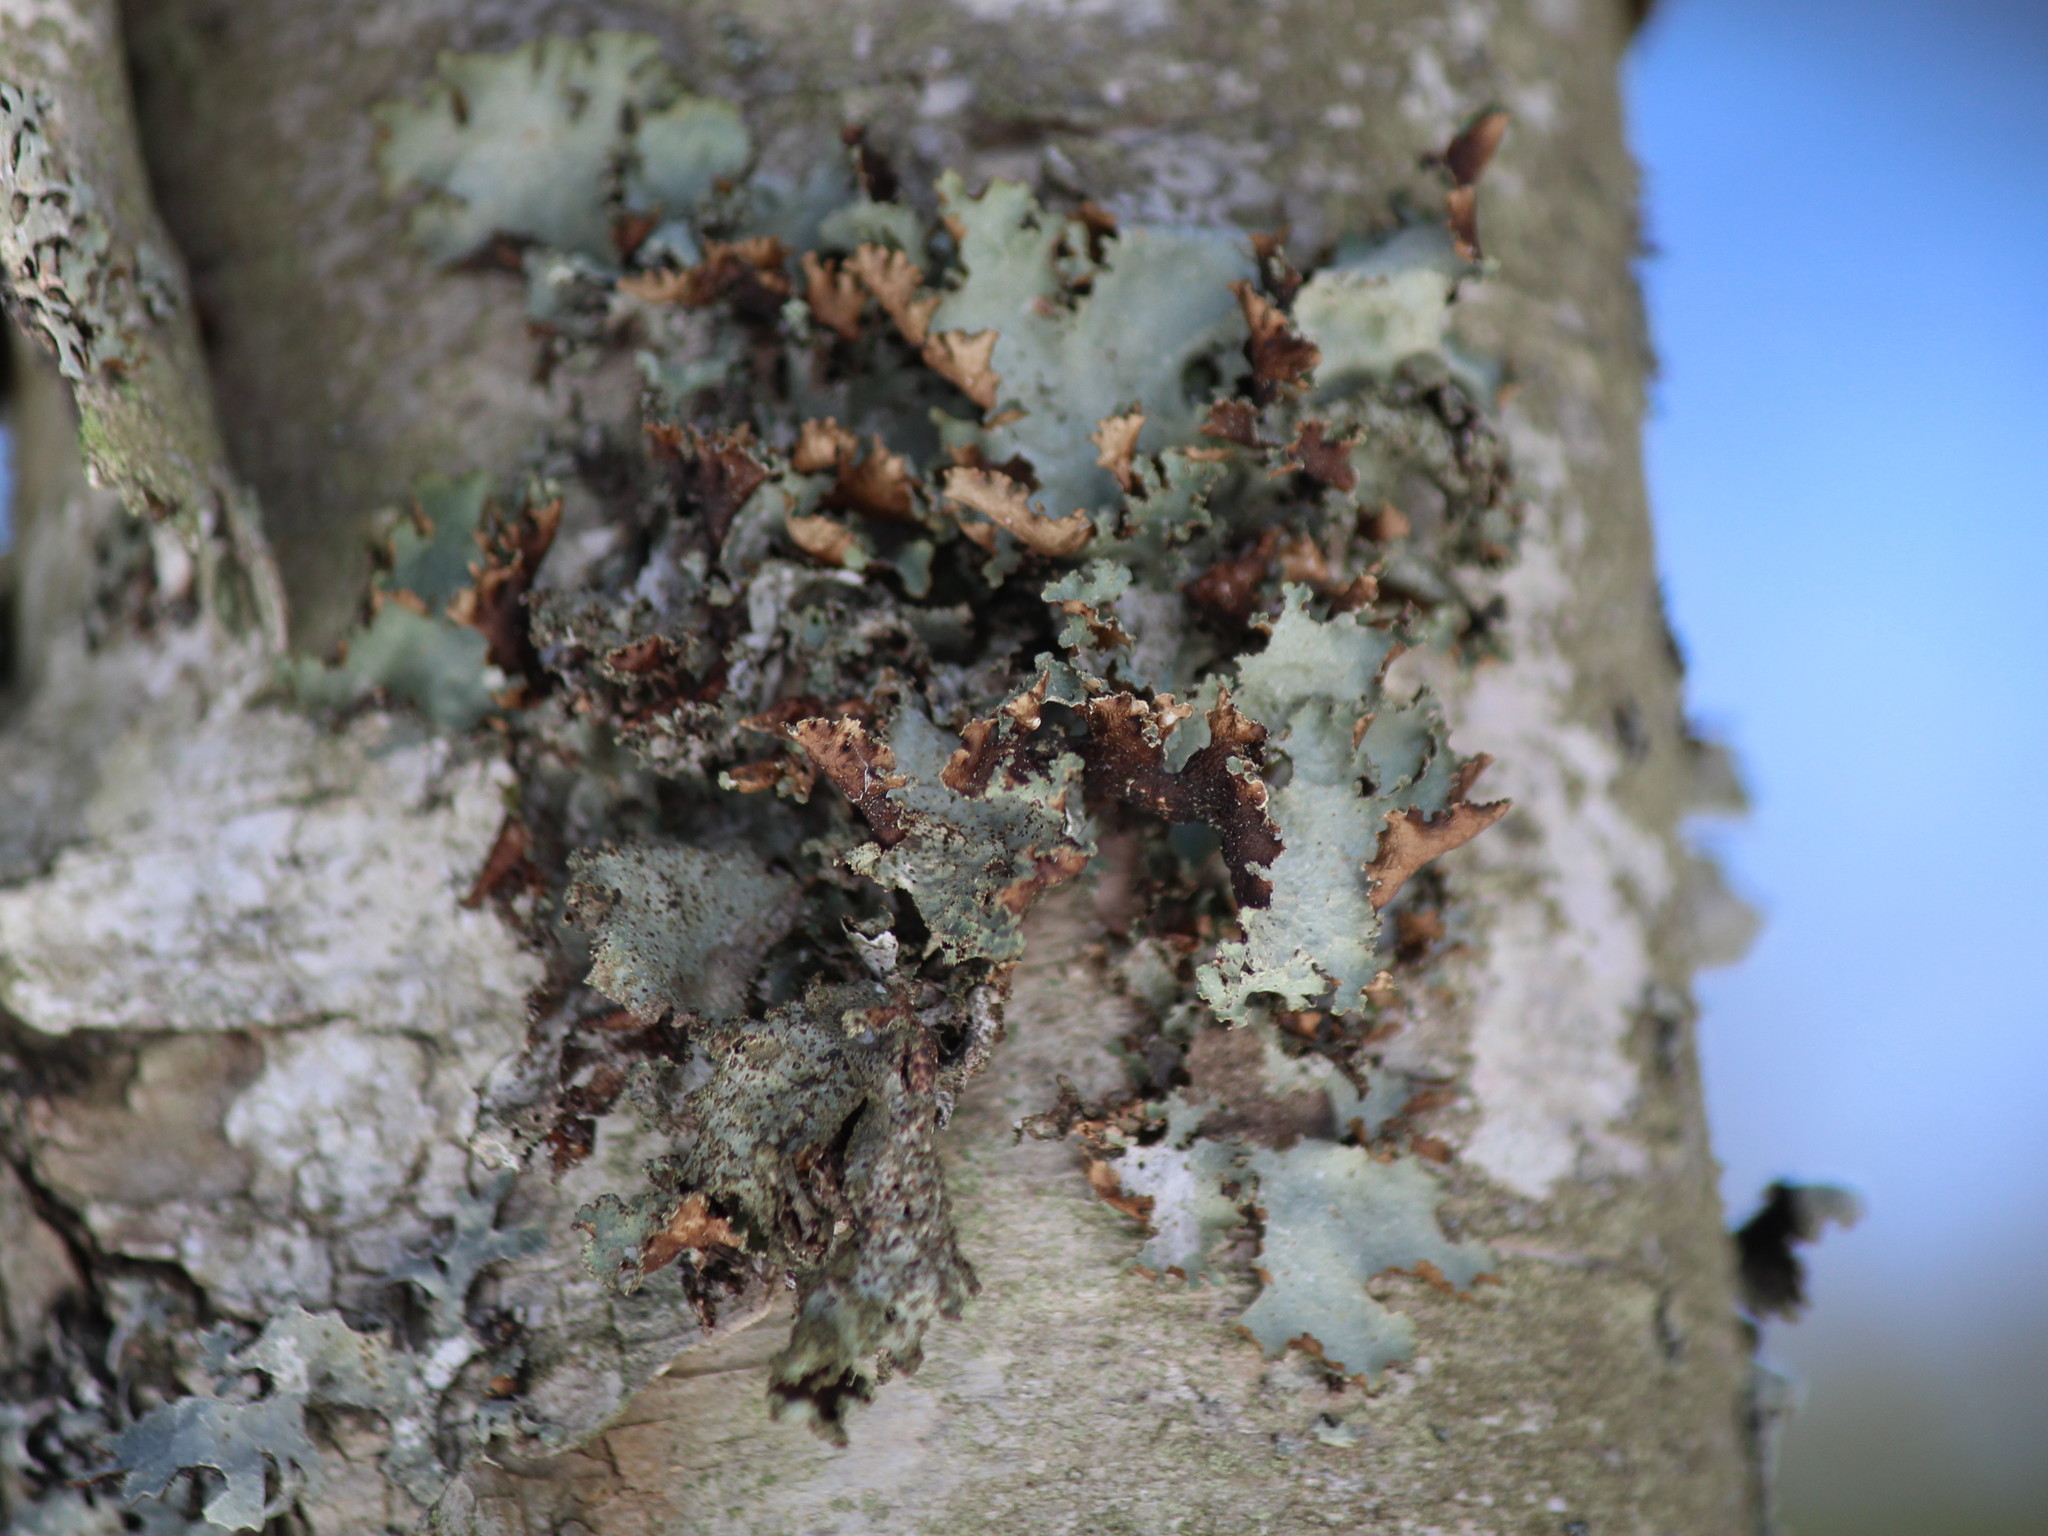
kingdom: Fungi
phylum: Ascomycota
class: Lecanoromycetes
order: Lecanorales
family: Parmeliaceae
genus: Platismatia
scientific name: Platismatia glauca
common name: Varied rag lichen
